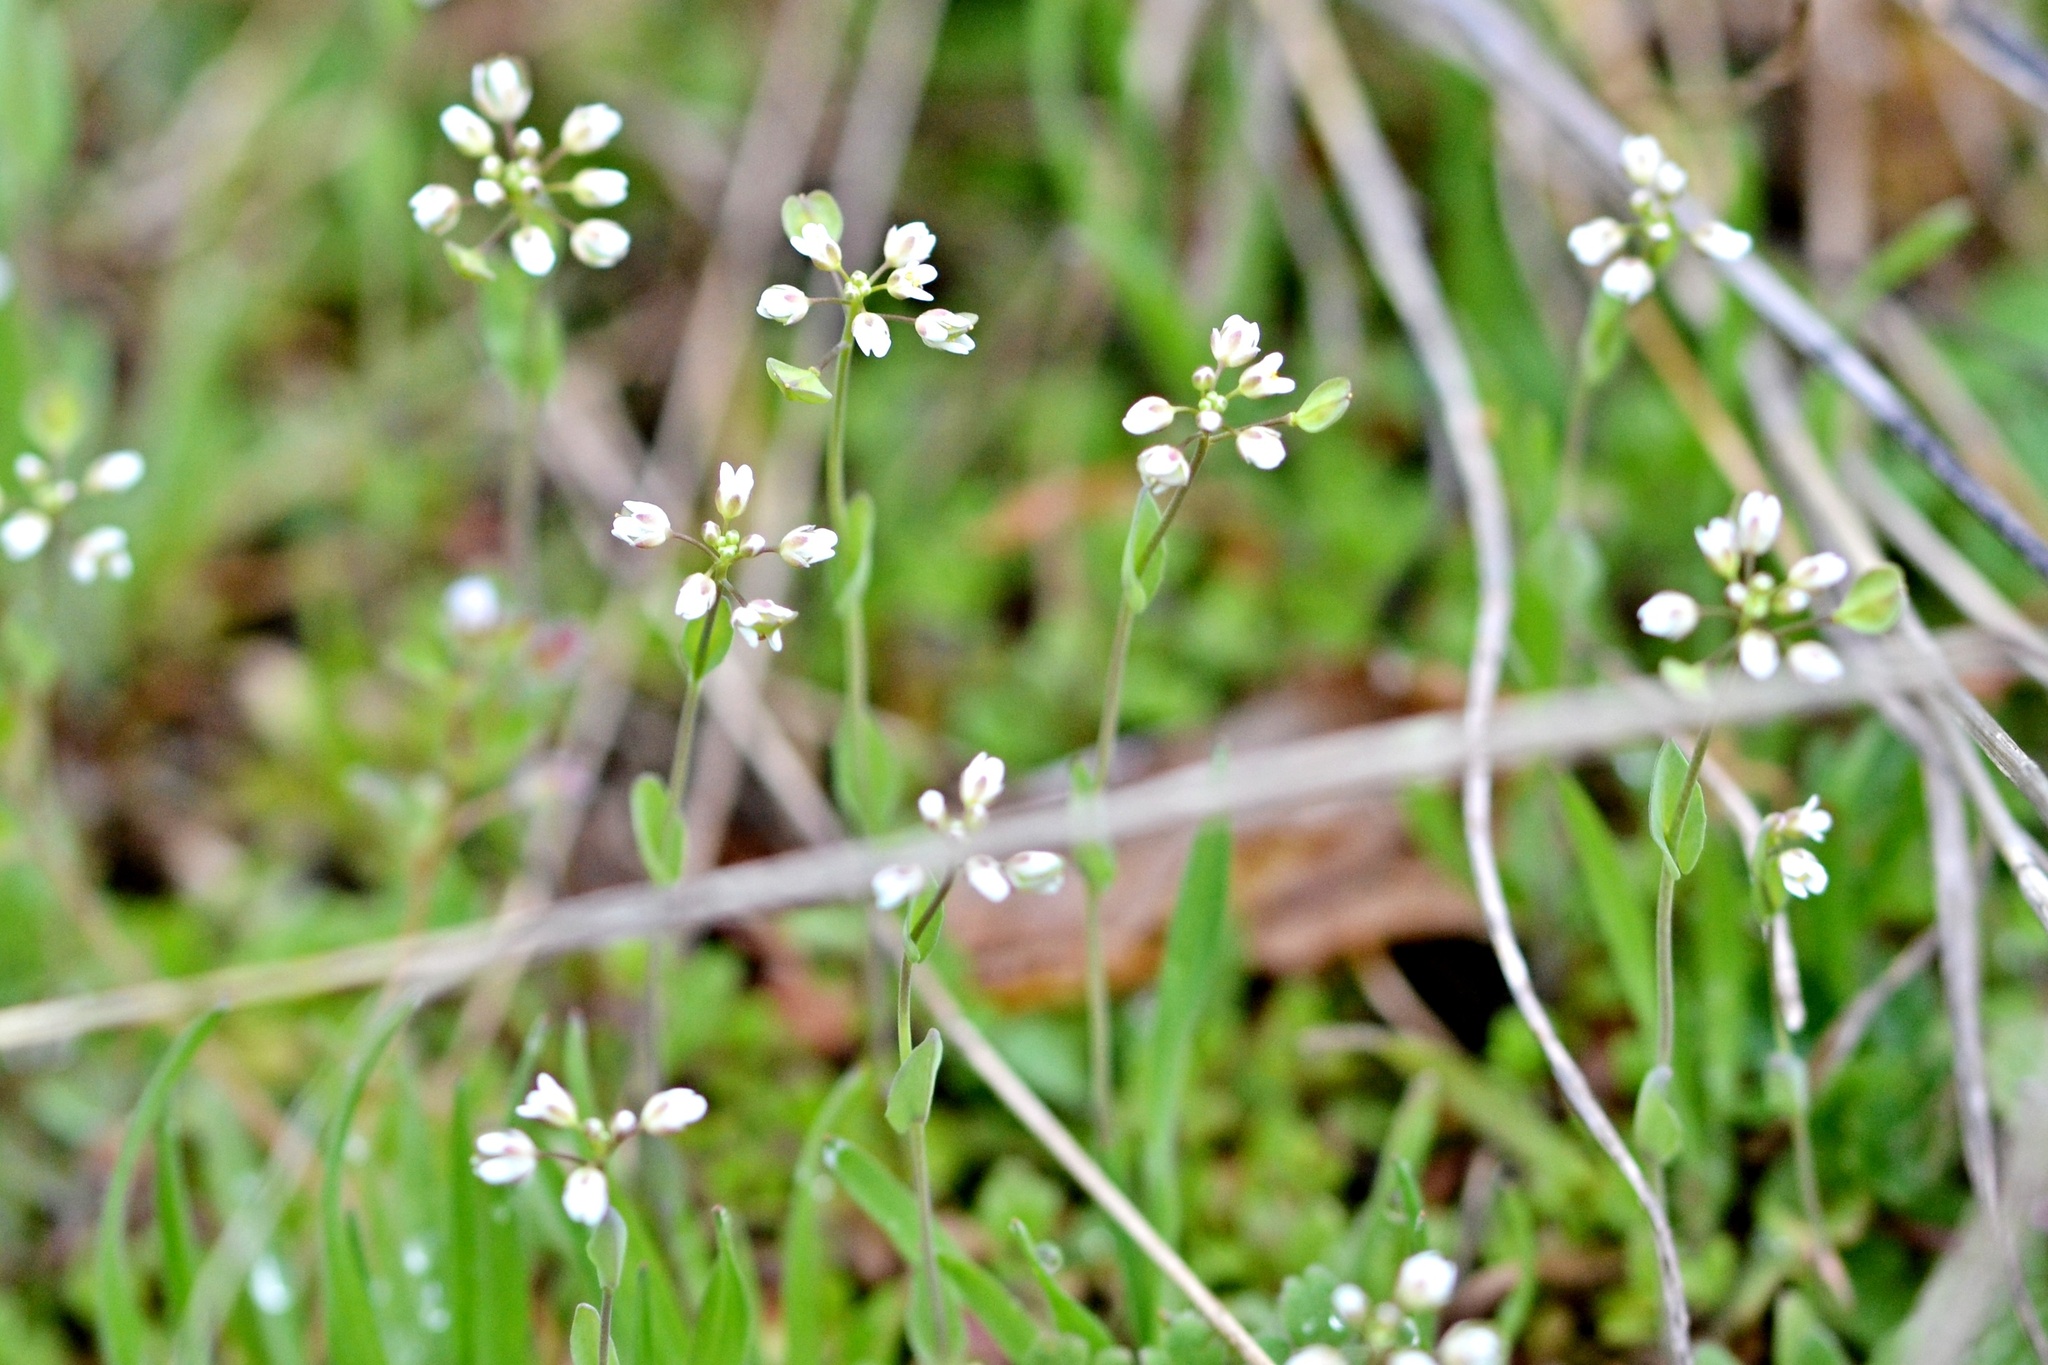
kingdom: Plantae
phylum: Tracheophyta
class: Magnoliopsida
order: Brassicales
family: Brassicaceae
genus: Noccaea
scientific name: Noccaea perfoliata
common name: Perfoliate pennycress
